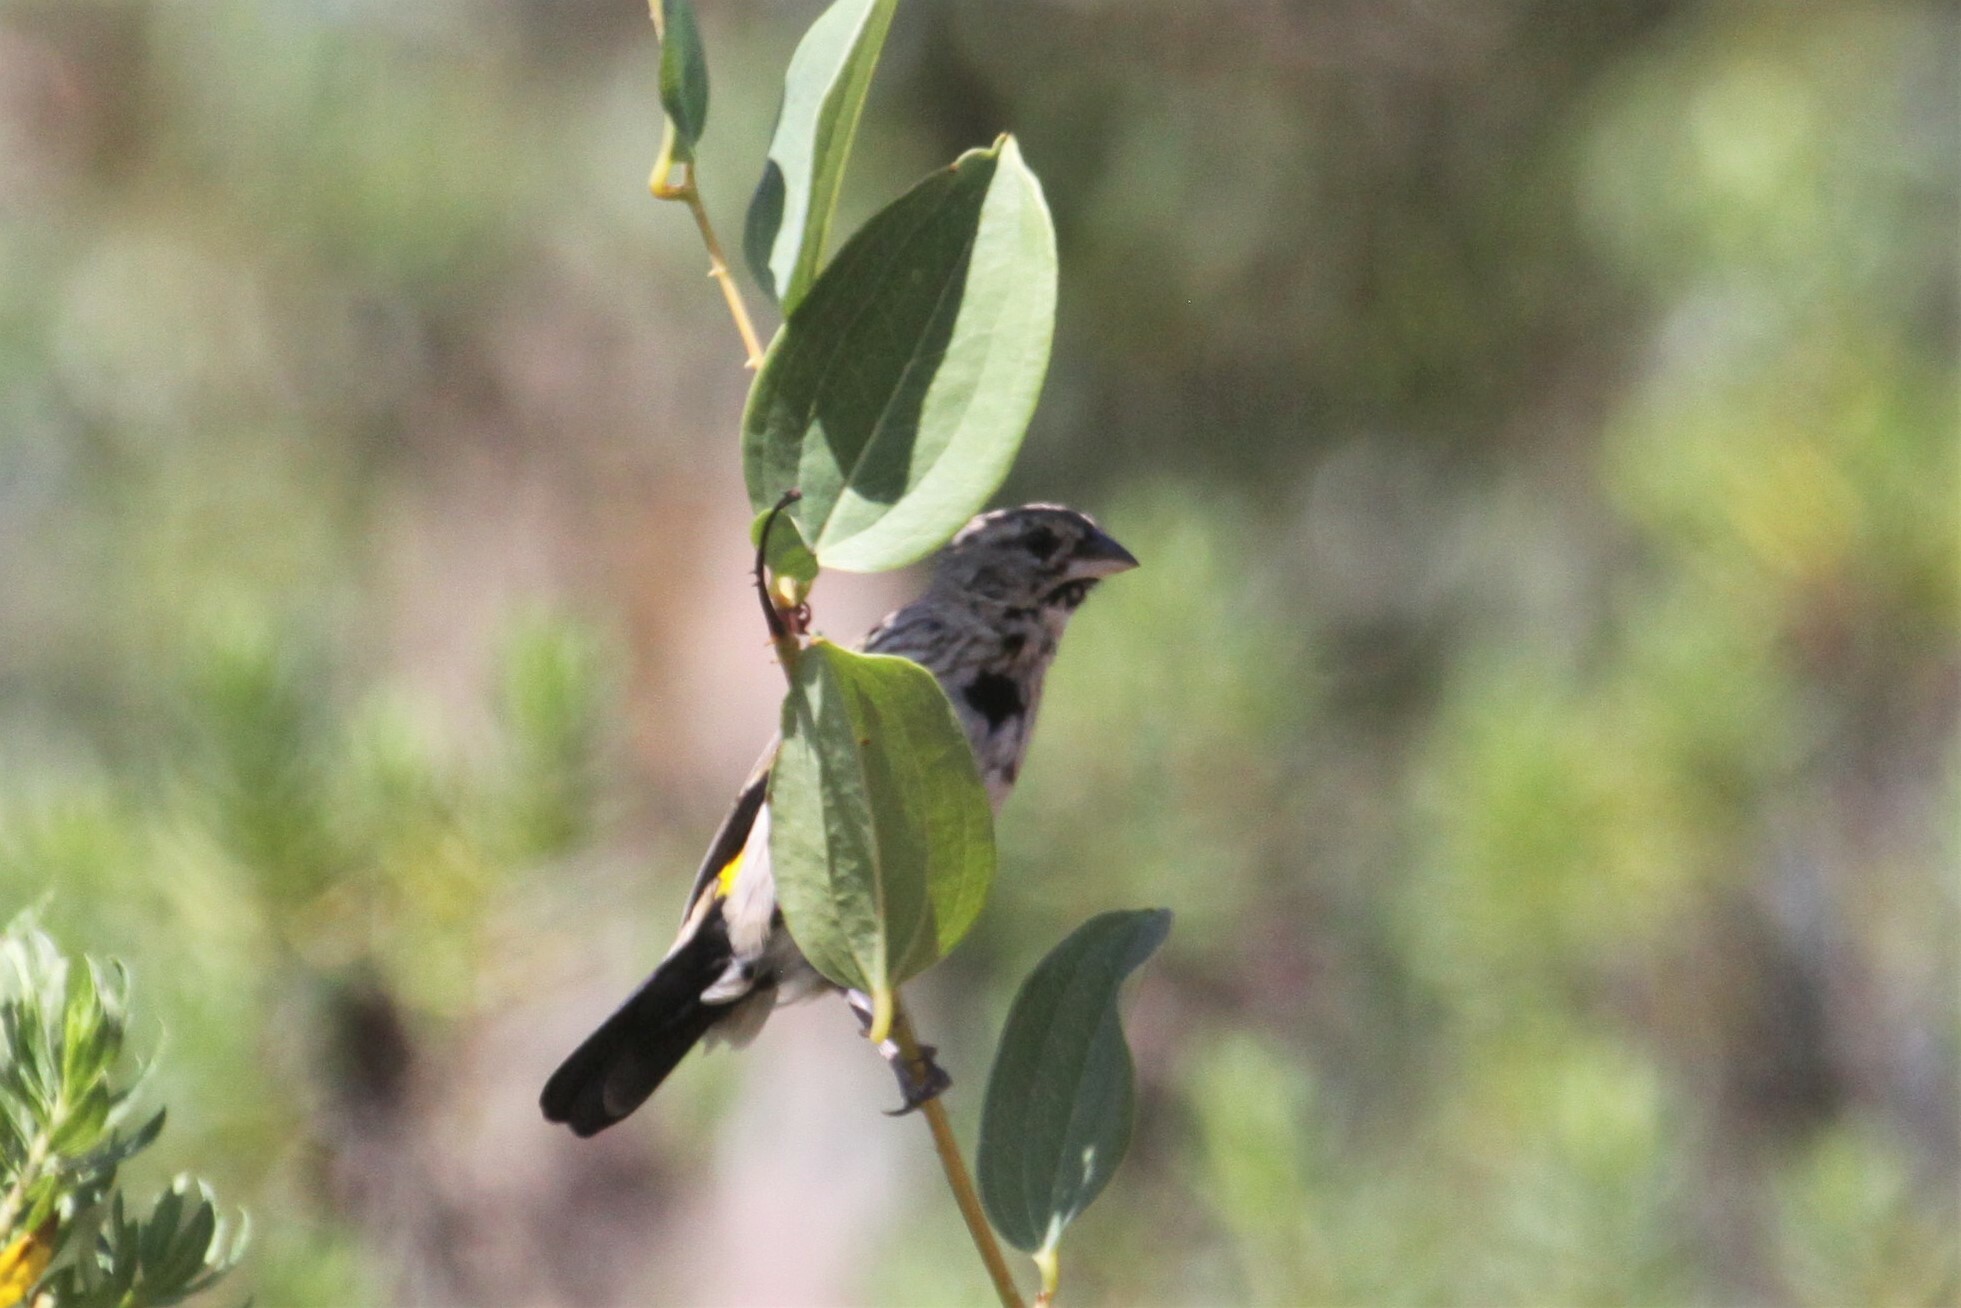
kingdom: Animalia
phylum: Chordata
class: Aves
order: Passeriformes
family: Ploceidae
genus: Euplectes
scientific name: Euplectes capensis
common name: Yellow bishop
